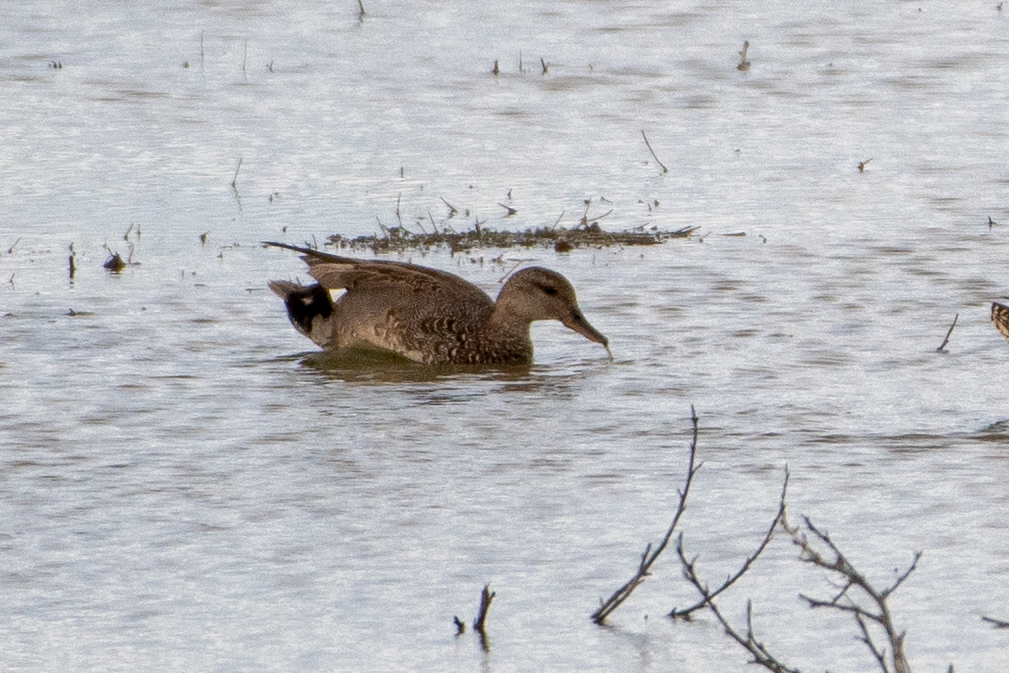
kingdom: Animalia
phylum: Chordata
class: Aves
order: Anseriformes
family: Anatidae
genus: Mareca
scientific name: Mareca strepera
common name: Gadwall
